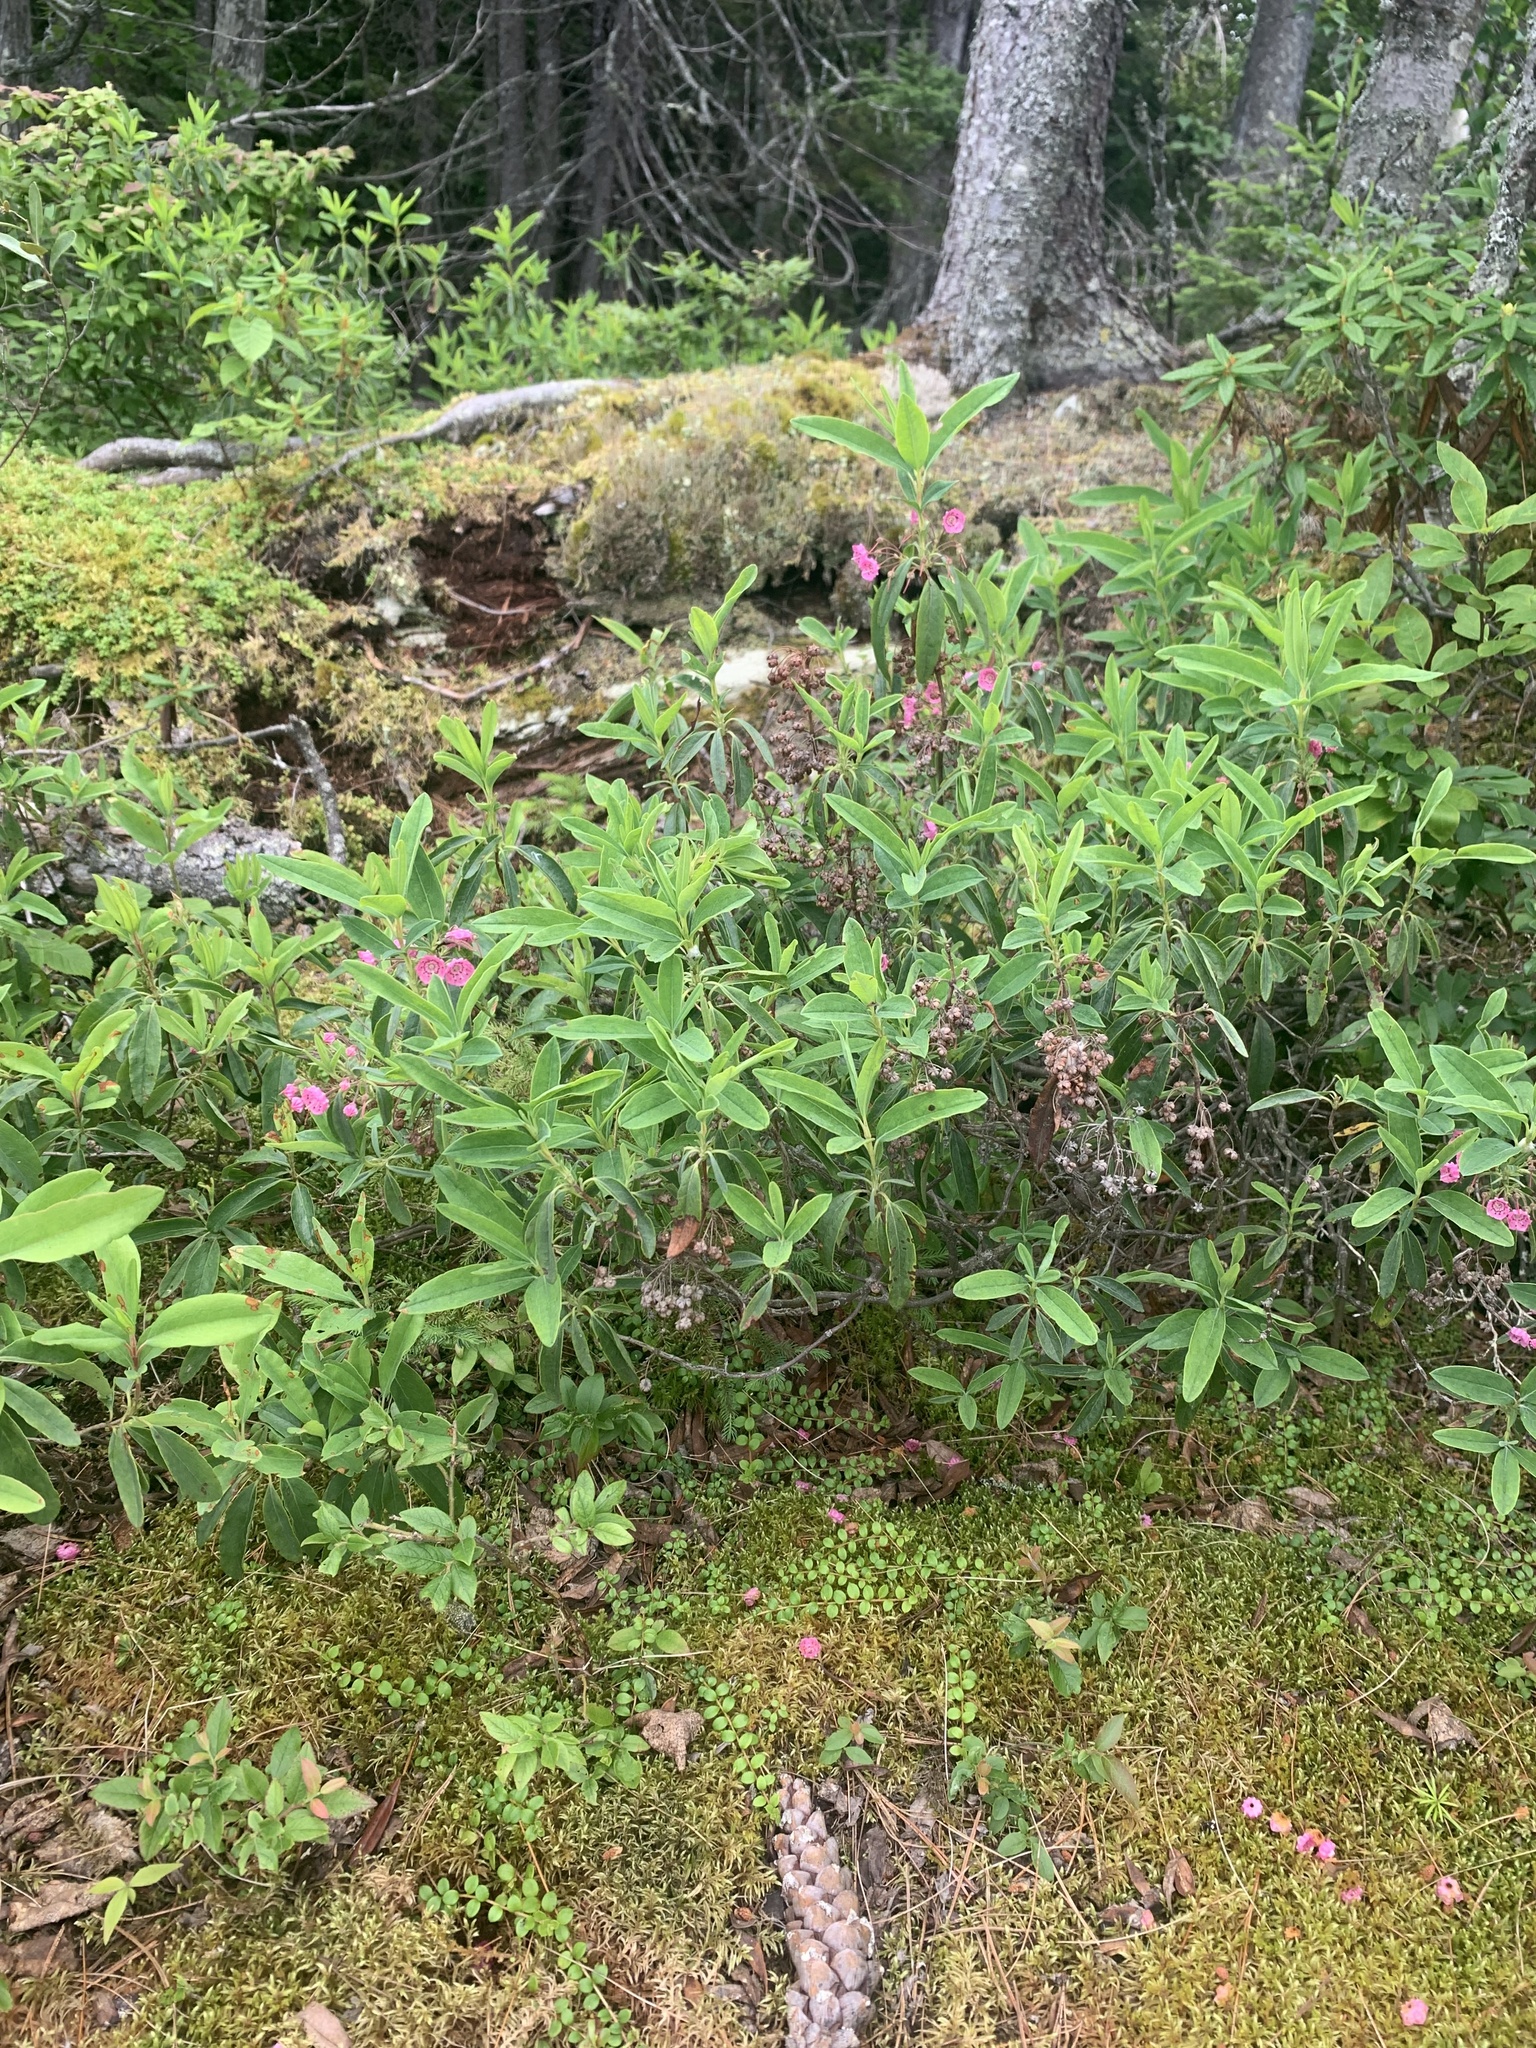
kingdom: Plantae
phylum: Tracheophyta
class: Magnoliopsida
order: Ericales
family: Ericaceae
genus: Kalmia
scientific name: Kalmia angustifolia
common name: Sheep-laurel
